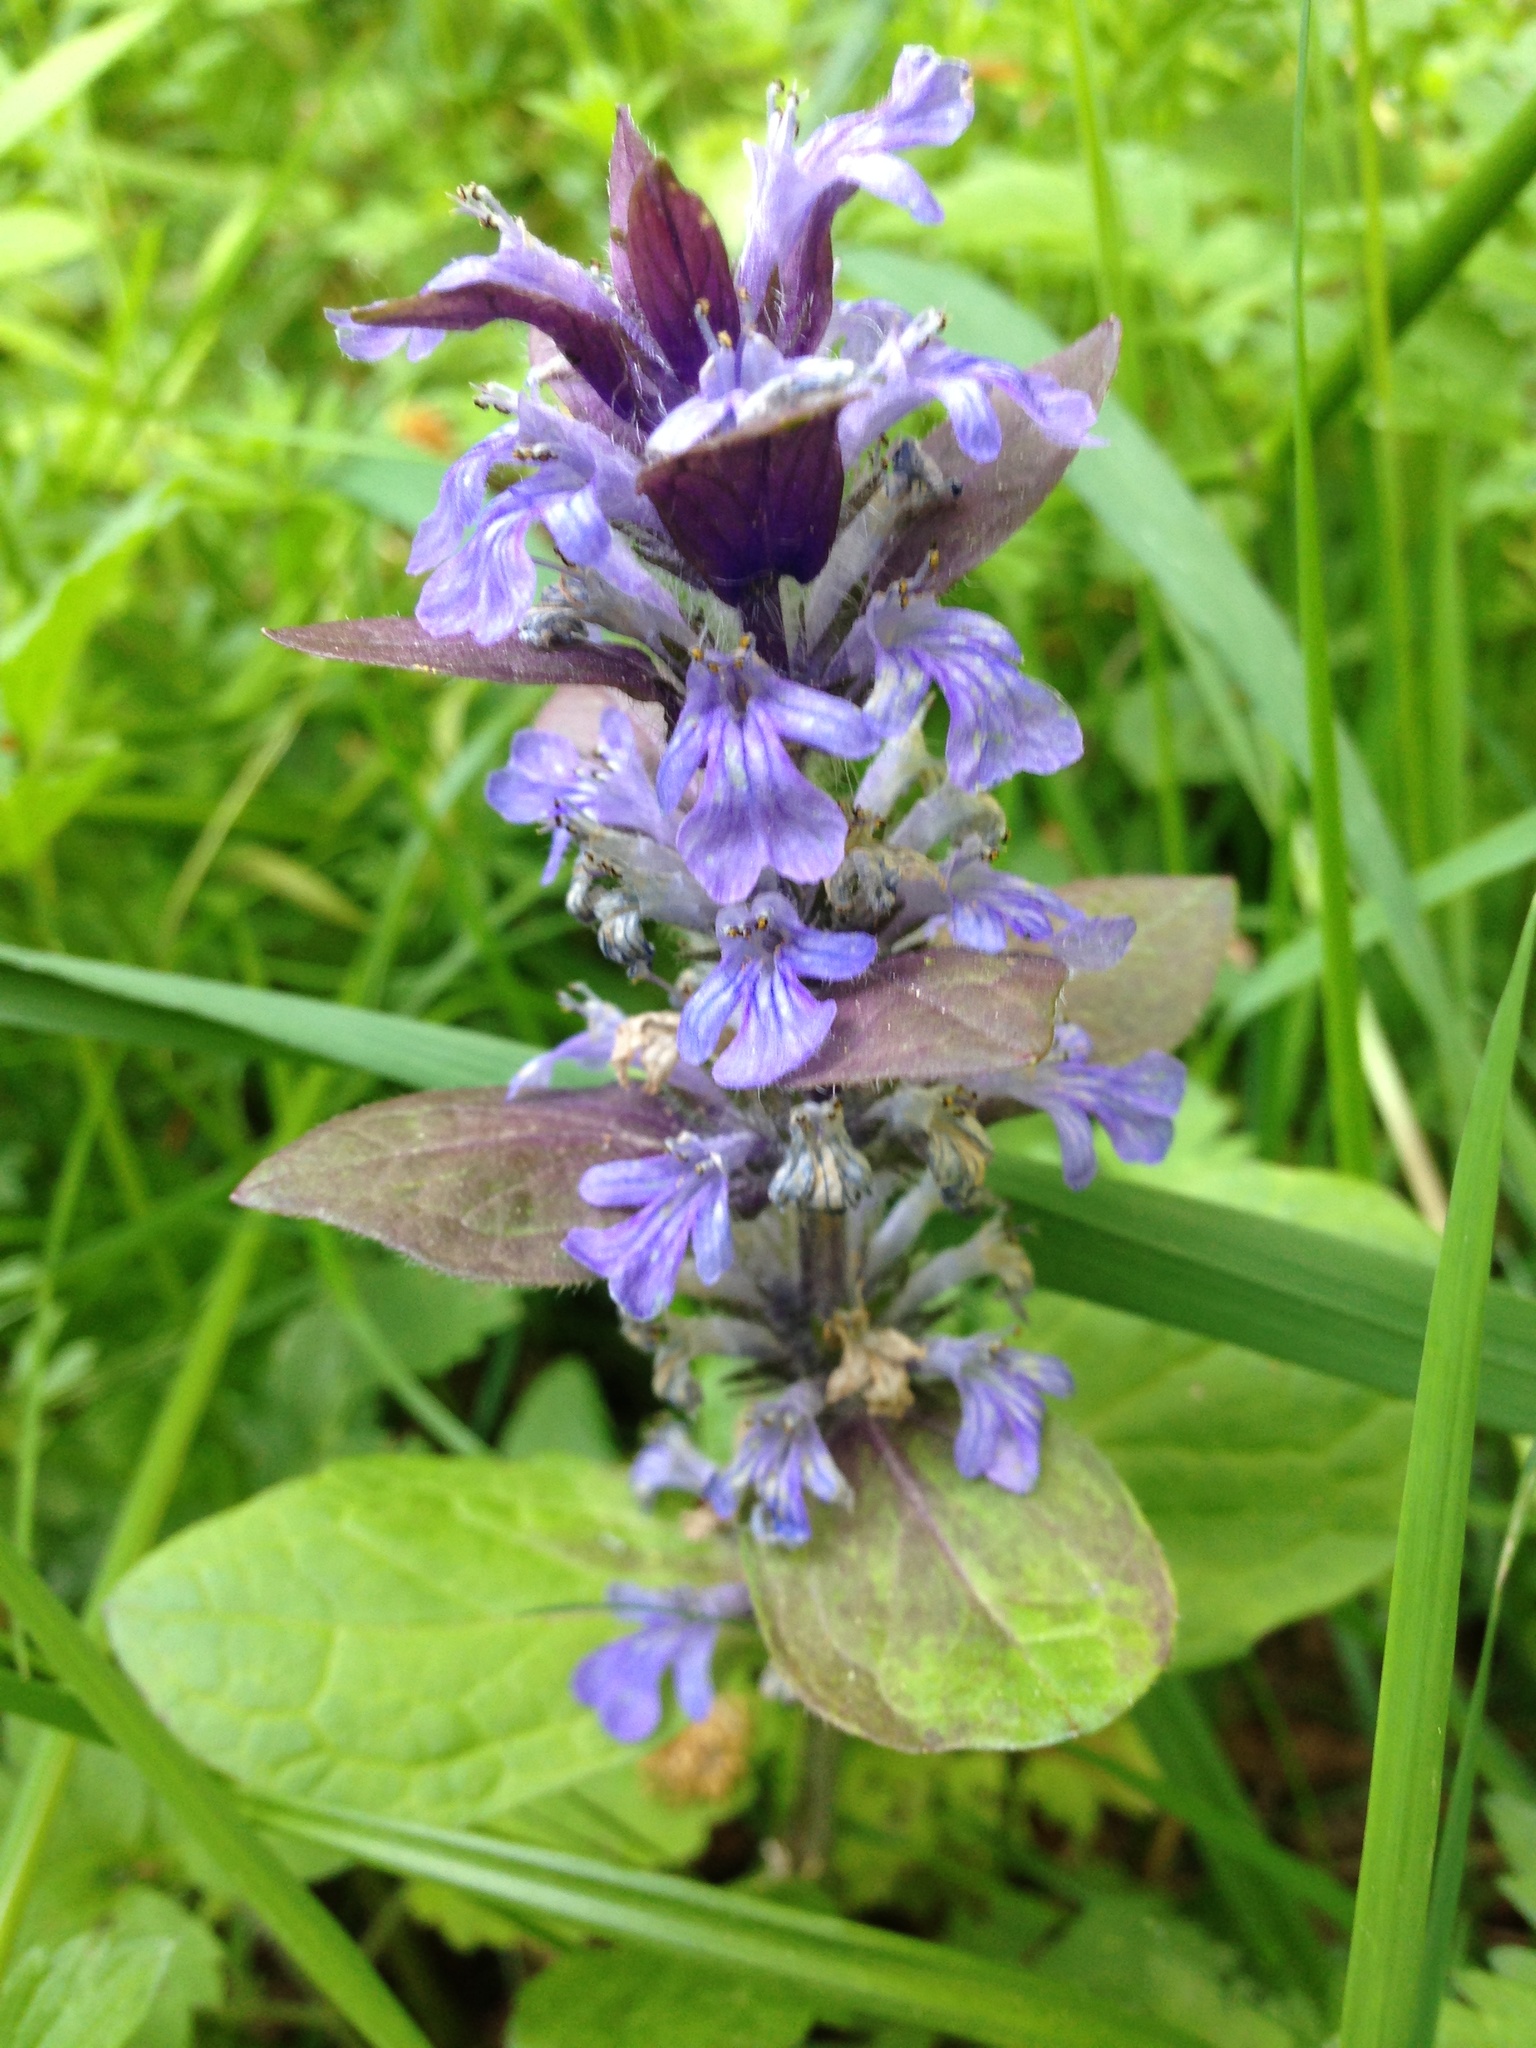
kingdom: Plantae
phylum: Tracheophyta
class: Magnoliopsida
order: Lamiales
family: Lamiaceae
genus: Ajuga
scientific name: Ajuga reptans
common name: Bugle
